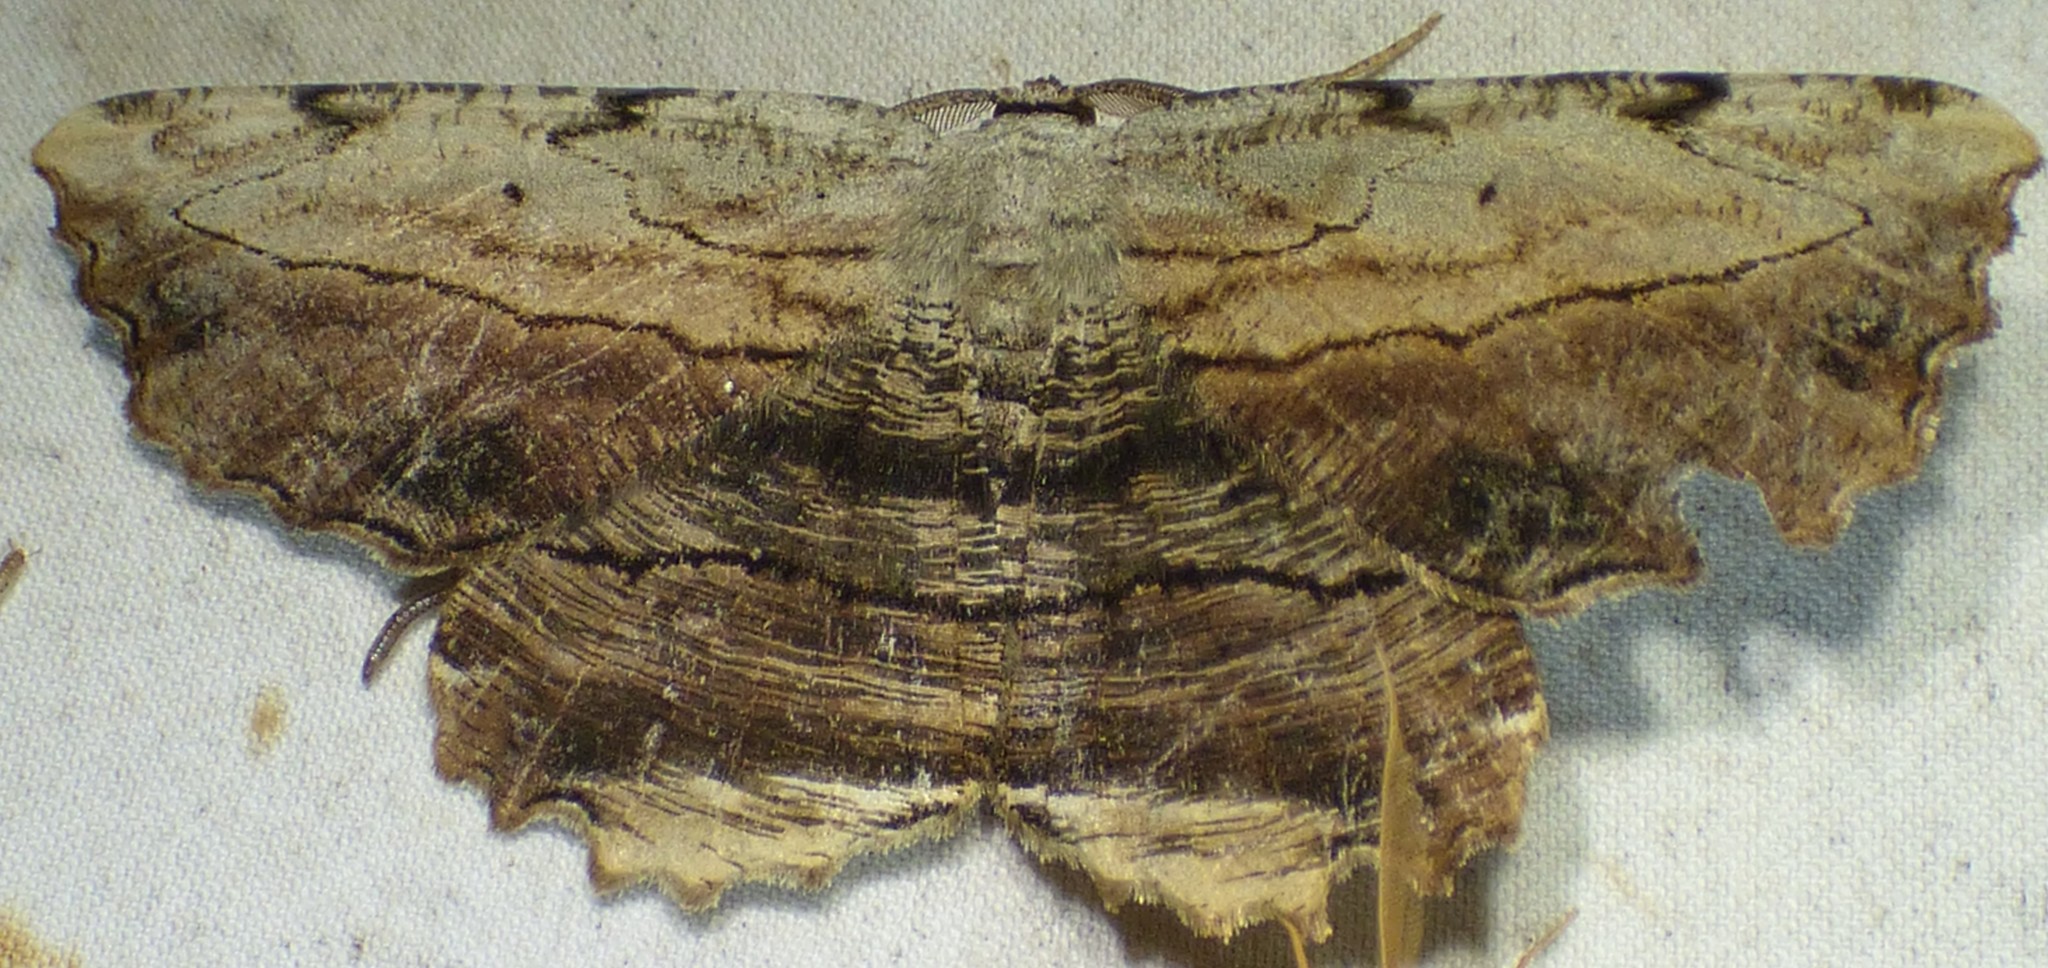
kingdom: Animalia
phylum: Arthropoda
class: Insecta
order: Lepidoptera
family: Geometridae
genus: Lytrosis
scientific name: Lytrosis unitaria
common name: Common lytrosis
